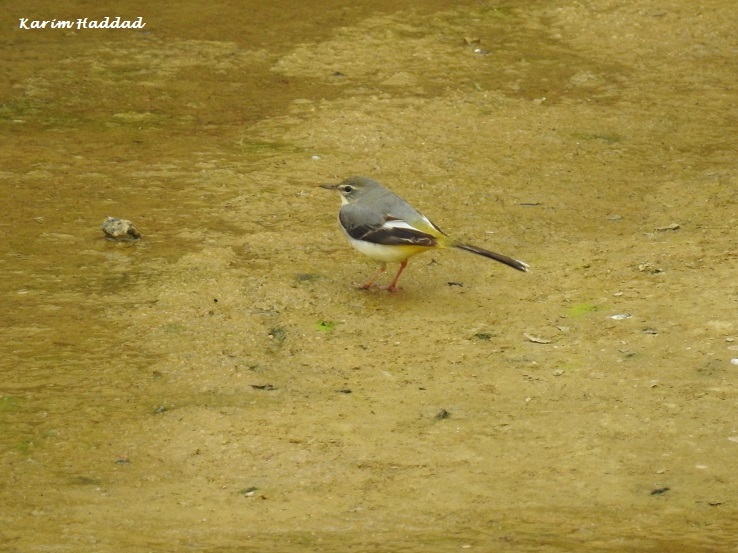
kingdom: Animalia
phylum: Chordata
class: Aves
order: Passeriformes
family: Motacillidae
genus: Motacilla
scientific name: Motacilla cinerea
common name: Grey wagtail
